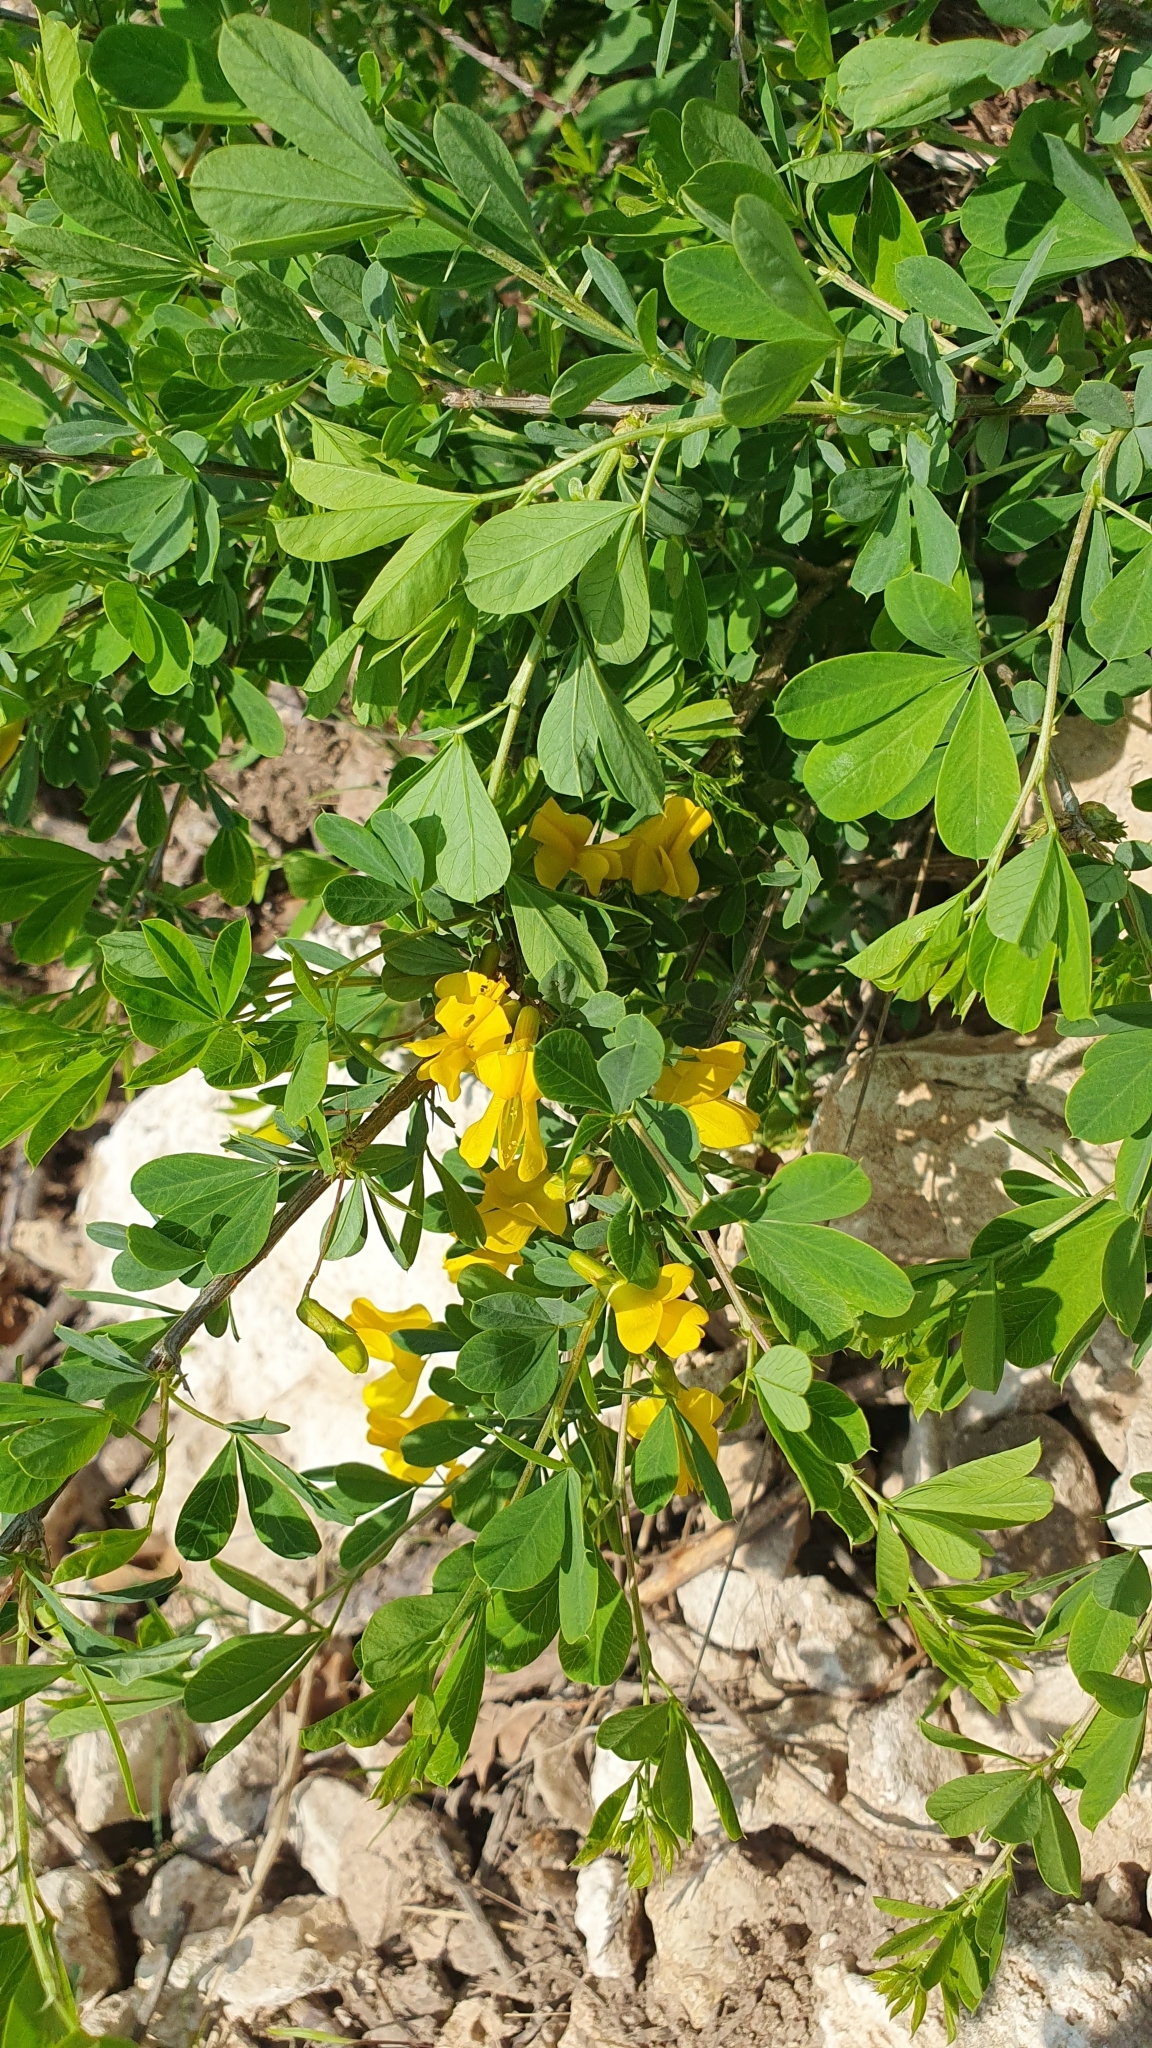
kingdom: Plantae
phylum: Tracheophyta
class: Magnoliopsida
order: Fabales
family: Fabaceae
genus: Caragana
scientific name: Caragana frutex
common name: Russian peashrub
